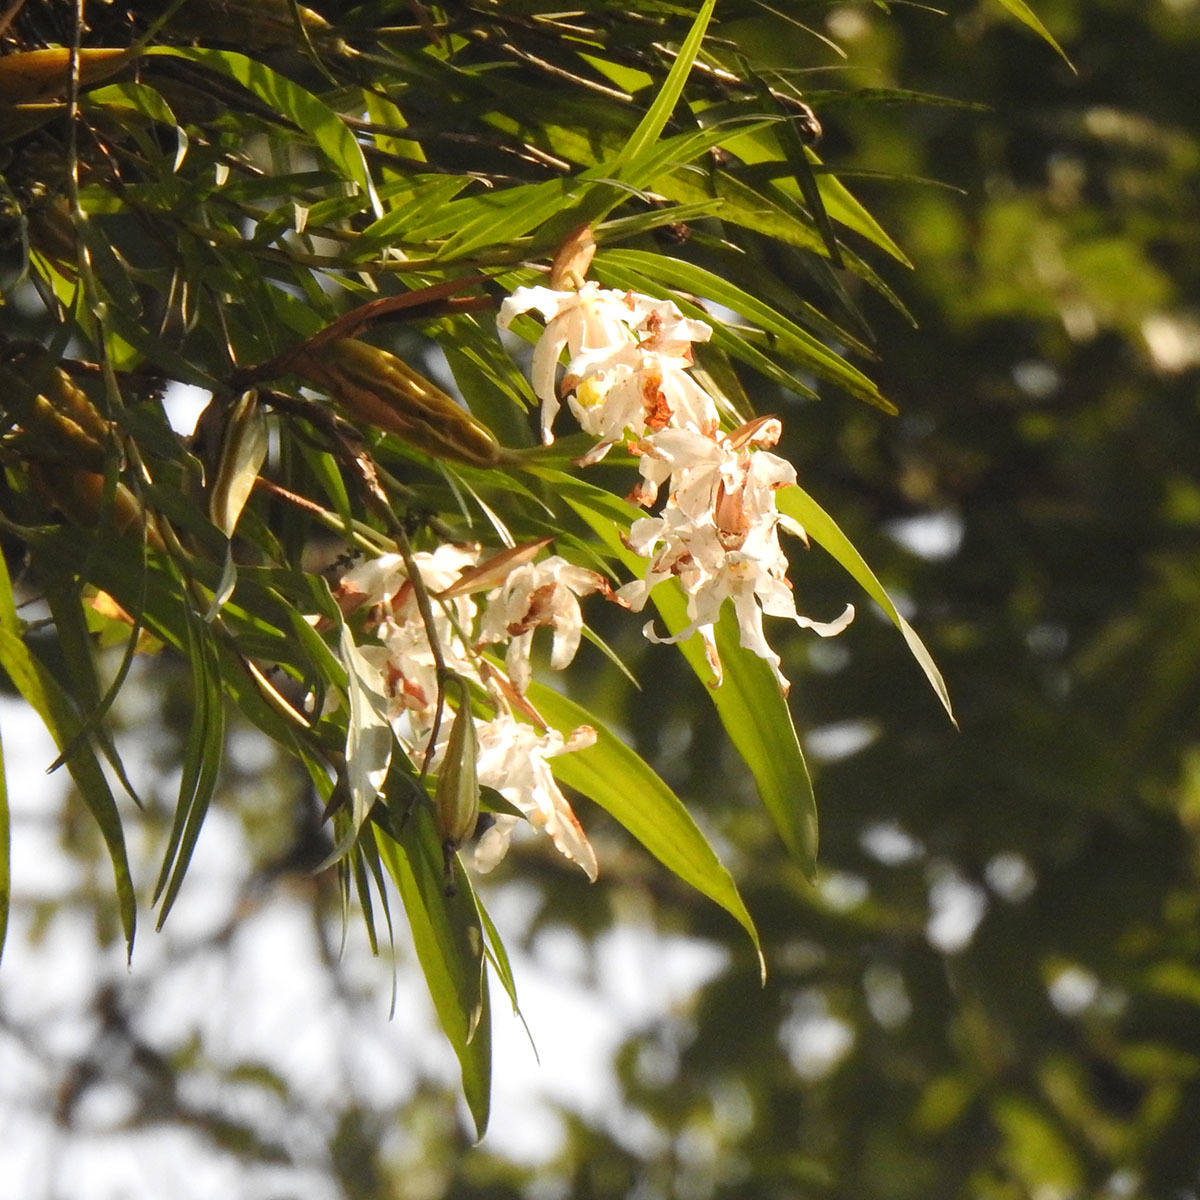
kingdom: Plantae
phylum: Tracheophyta
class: Liliopsida
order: Asparagales
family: Orchidaceae
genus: Coelogyne
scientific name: Coelogyne cristata
